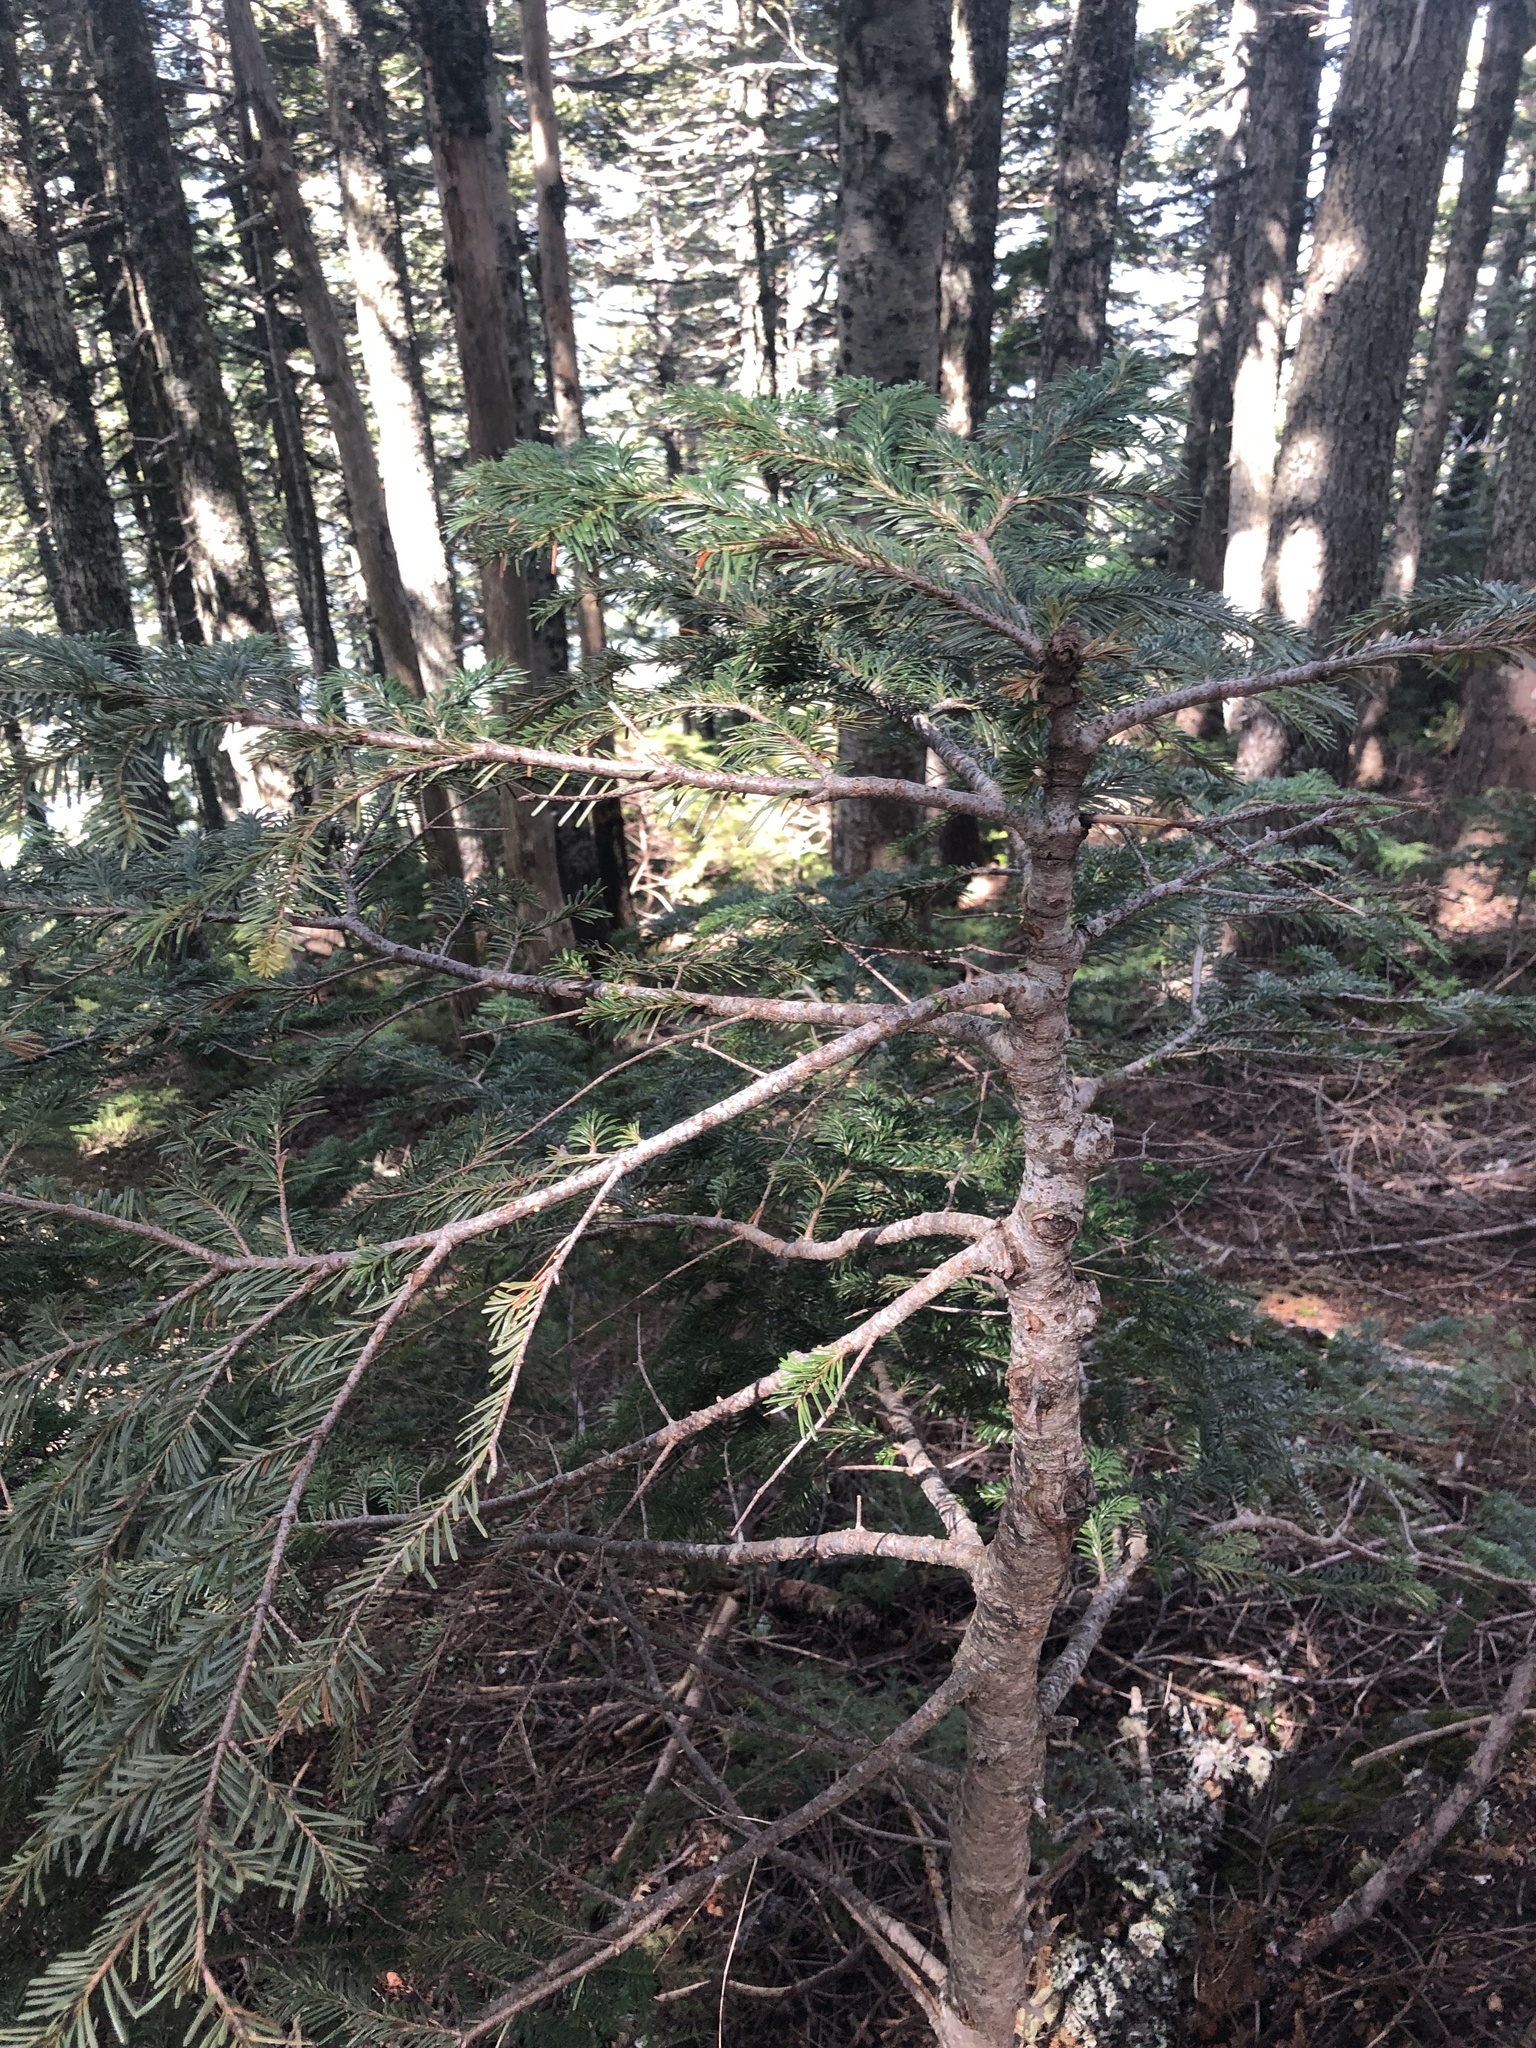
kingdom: Plantae
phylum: Tracheophyta
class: Pinopsida
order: Pinales
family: Pinaceae
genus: Abies
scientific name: Abies amabilis
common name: Pacific silver fir
